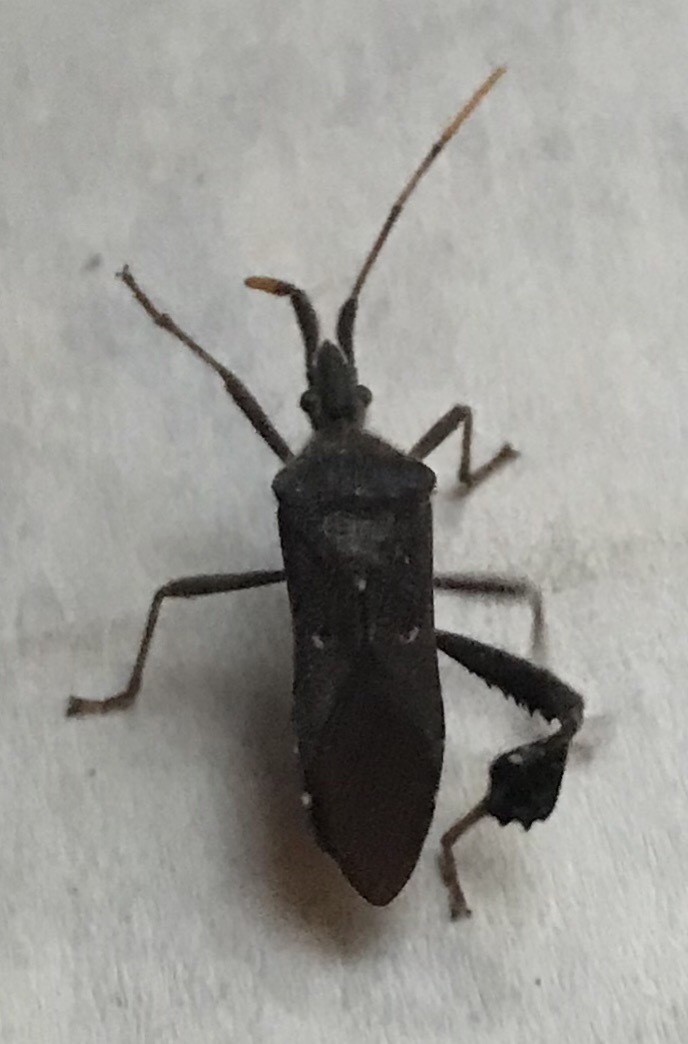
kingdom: Animalia
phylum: Arthropoda
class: Insecta
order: Hemiptera
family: Coreidae
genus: Leptoglossus
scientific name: Leptoglossus oppositus
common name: Northern leaf-footed bug
